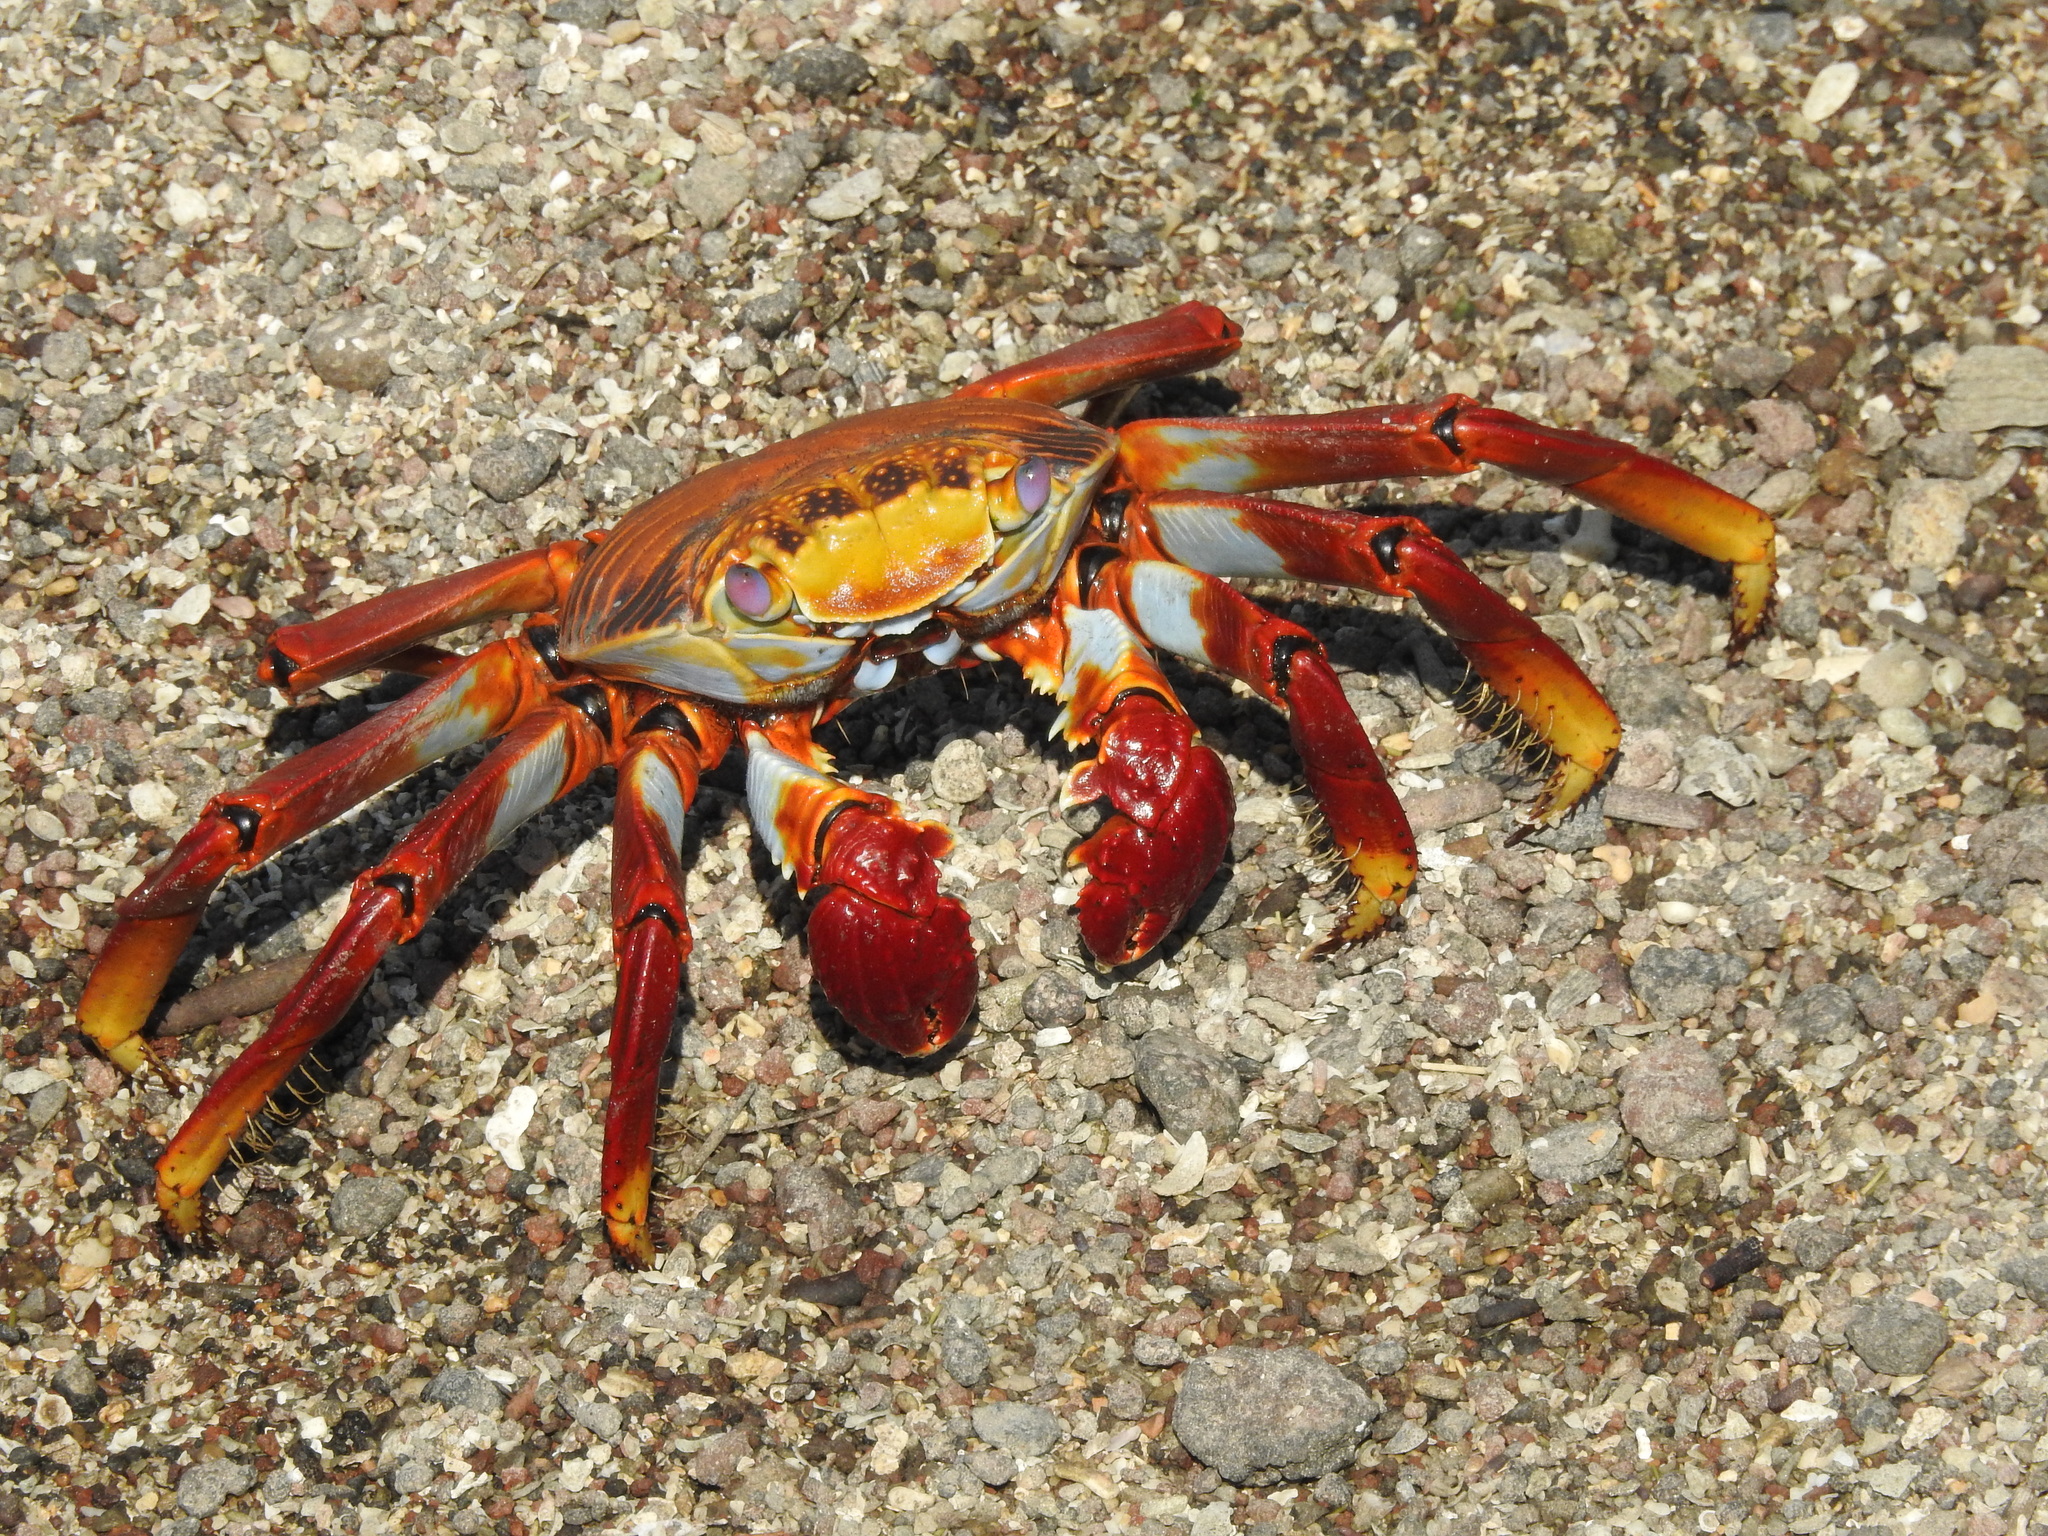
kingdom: Animalia
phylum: Arthropoda
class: Malacostraca
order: Decapoda
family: Grapsidae
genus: Grapsus
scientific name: Grapsus grapsus
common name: Sally lightfoot
